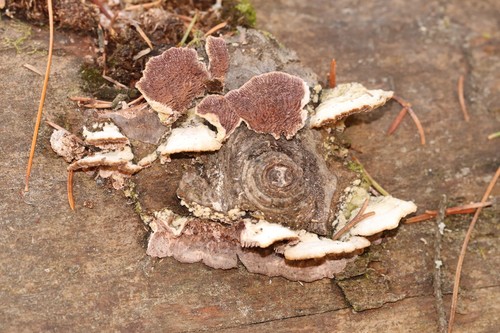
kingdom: Fungi
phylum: Basidiomycota
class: Agaricomycetes
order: Hymenochaetales
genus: Trichaptum
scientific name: Trichaptum fuscoviolaceum
